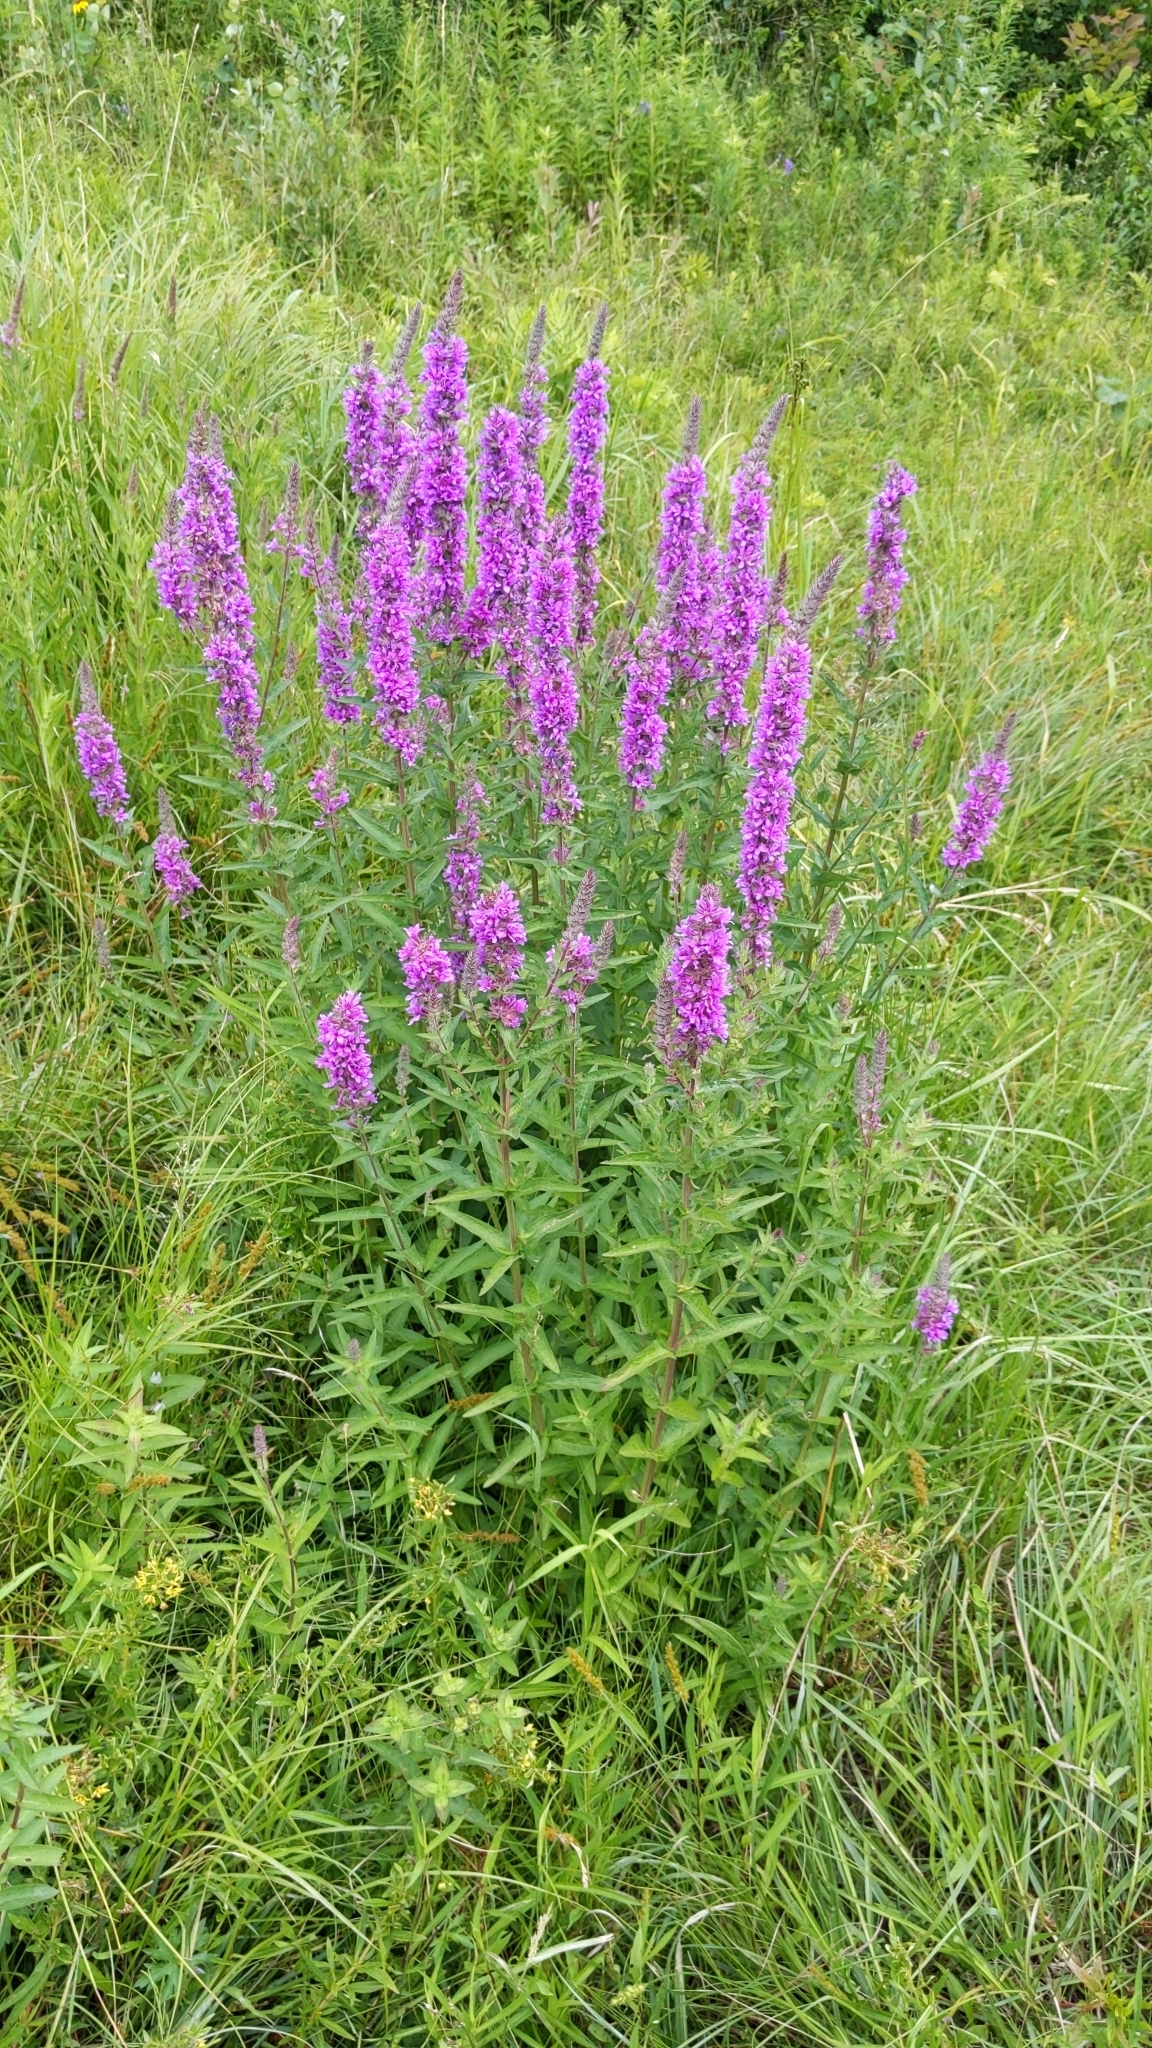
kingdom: Plantae
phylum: Tracheophyta
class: Magnoliopsida
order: Myrtales
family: Lythraceae
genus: Lythrum
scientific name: Lythrum salicaria
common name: Purple loosestrife
